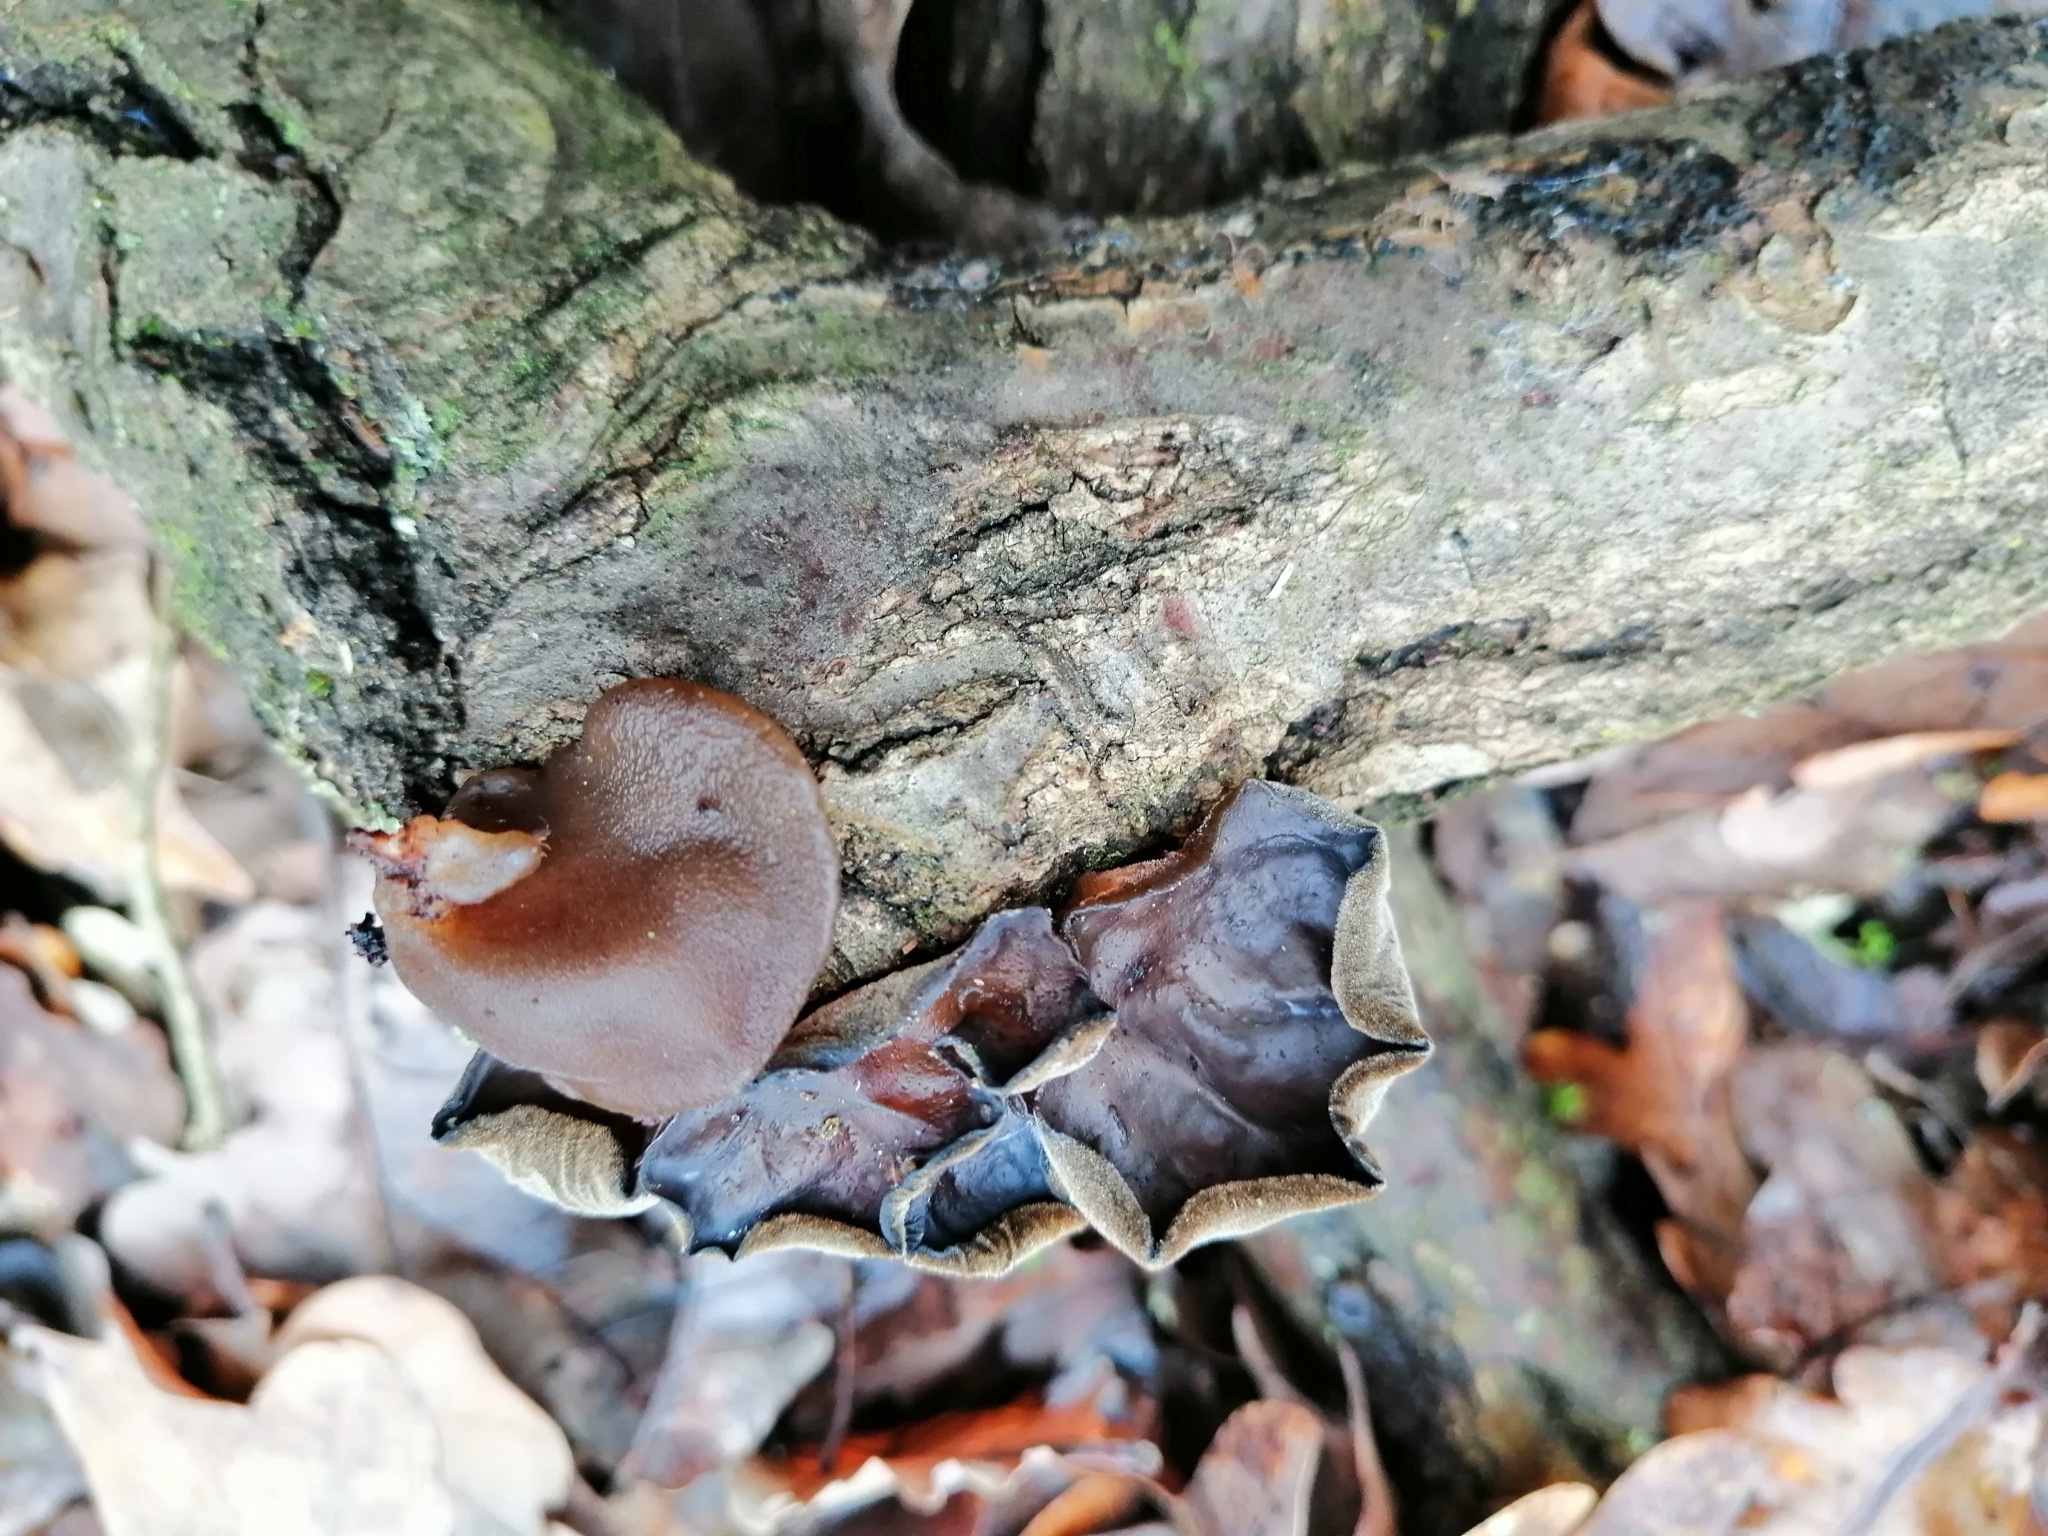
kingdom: Fungi
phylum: Basidiomycota
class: Agaricomycetes
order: Auriculariales
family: Auriculariaceae
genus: Auricularia
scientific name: Auricularia auricula-judae
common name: Jelly ear
